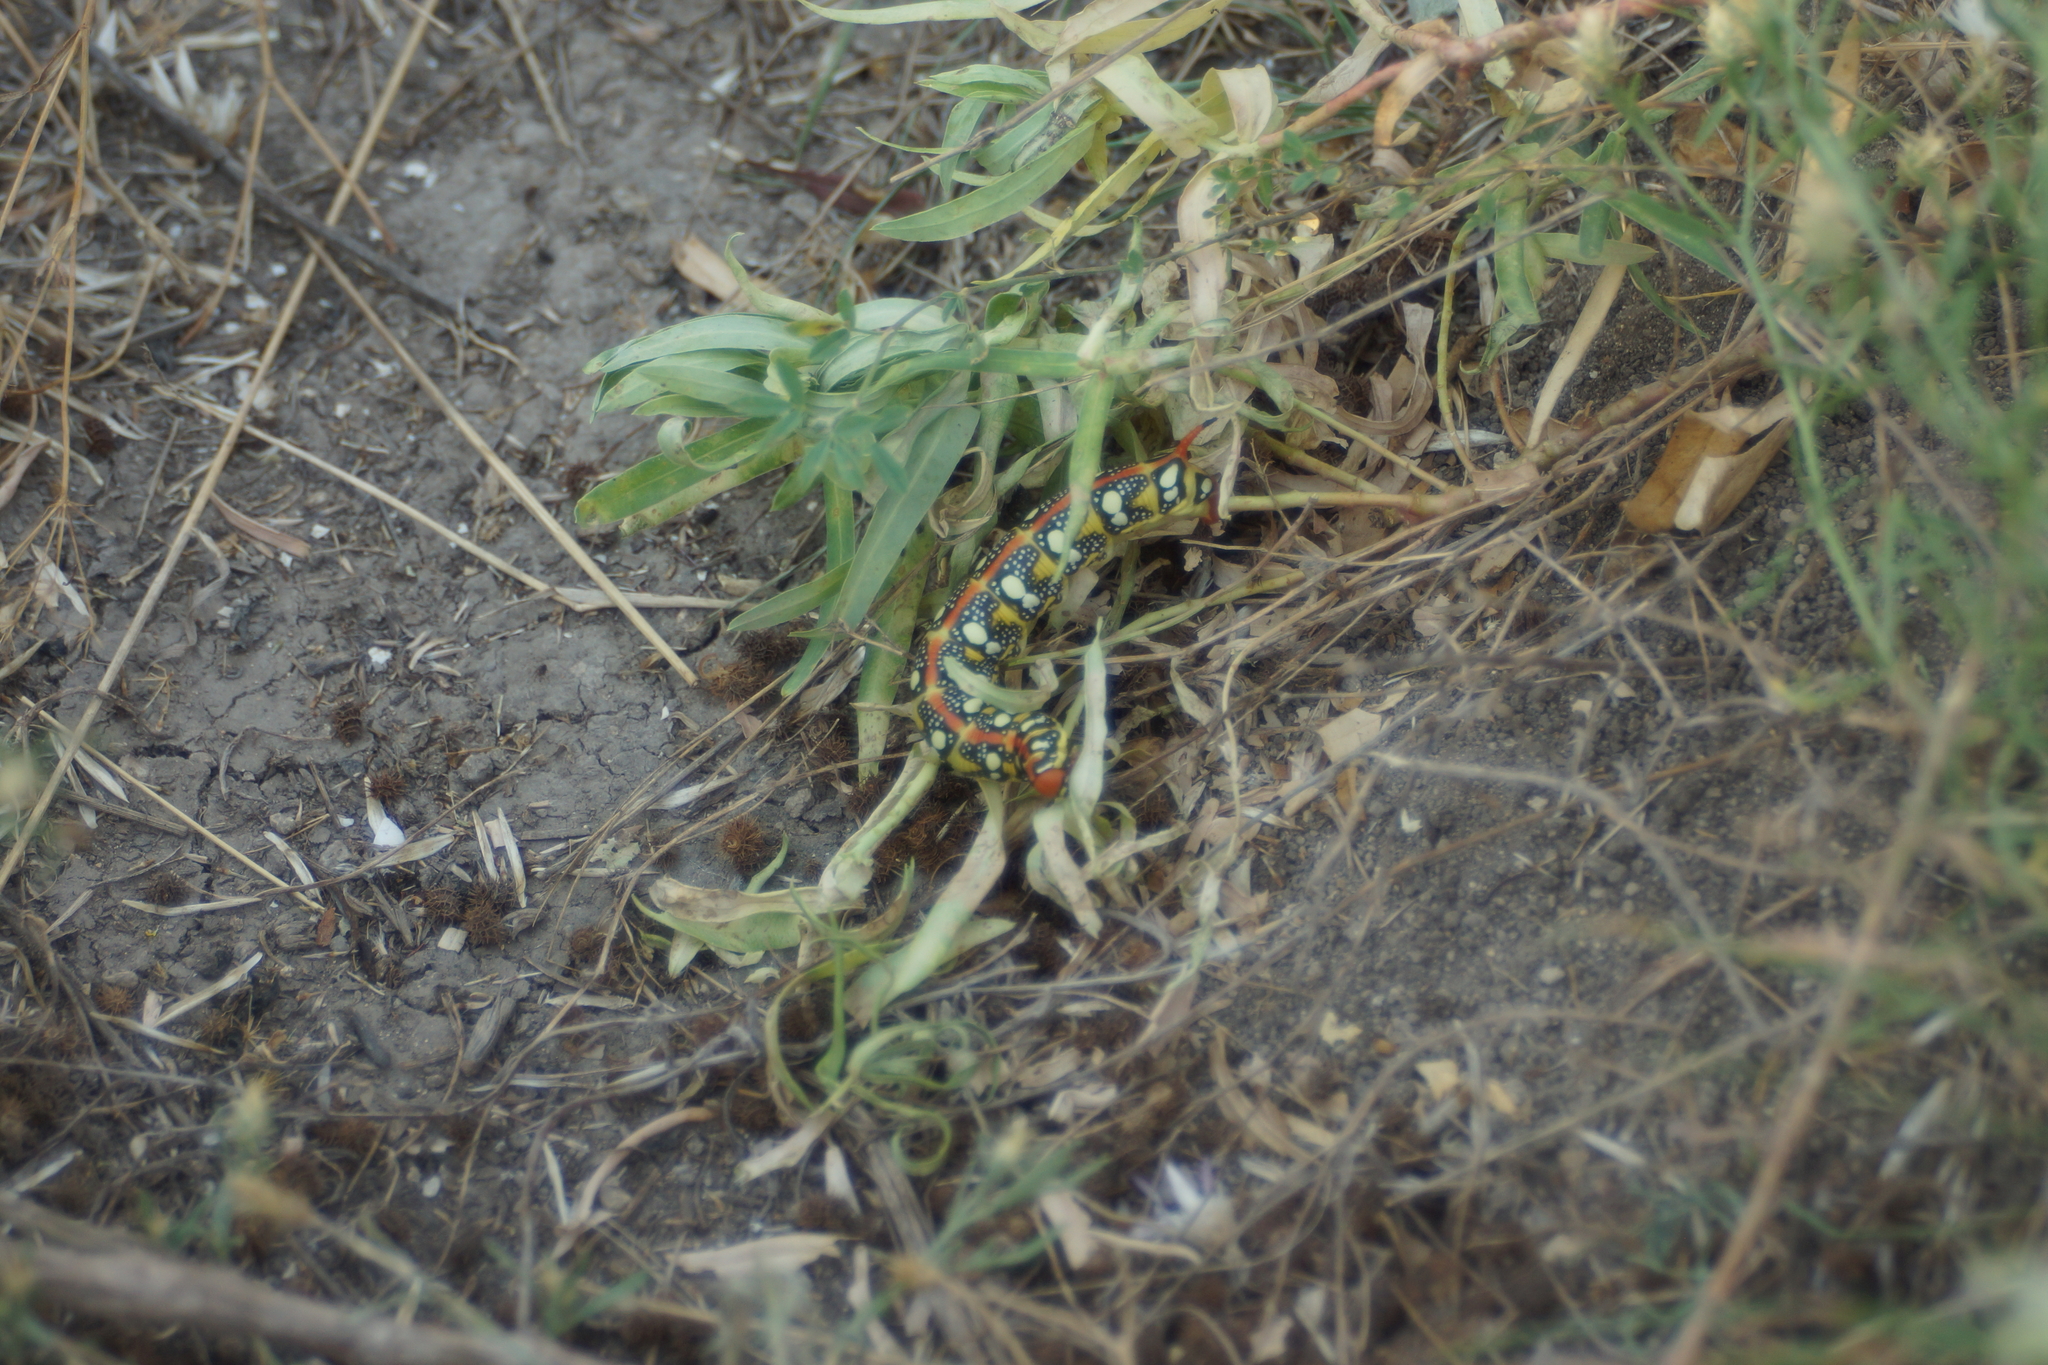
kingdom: Animalia
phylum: Arthropoda
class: Insecta
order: Lepidoptera
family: Sphingidae
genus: Hyles
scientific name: Hyles euphorbiae
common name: Spurge hawk-moth
